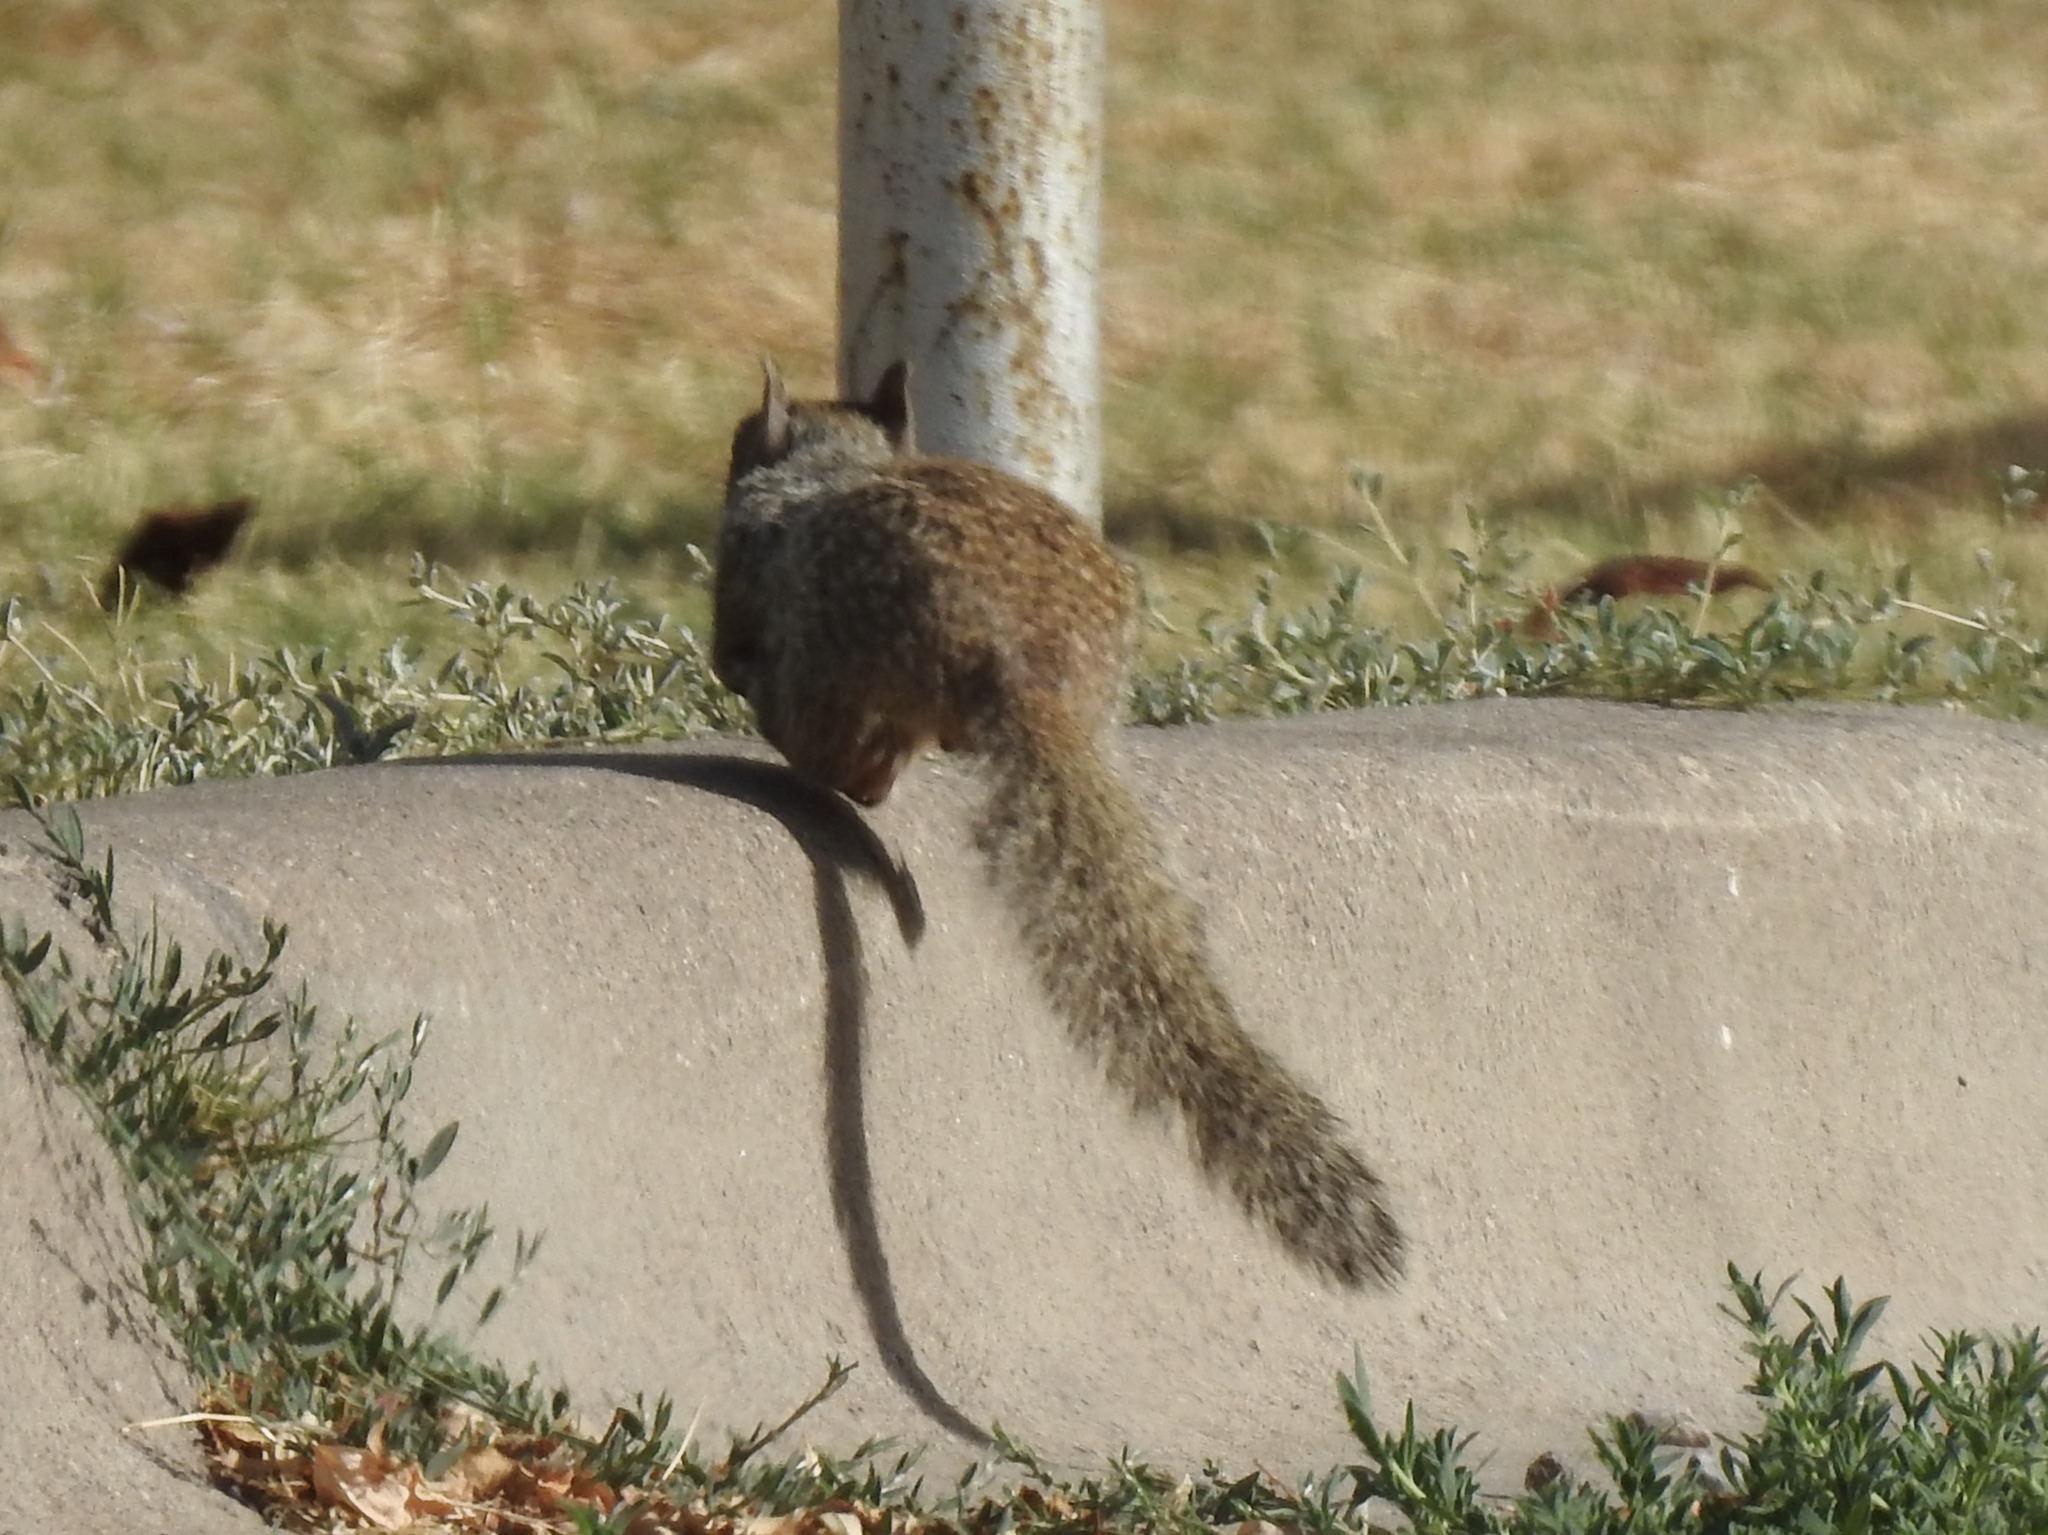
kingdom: Animalia
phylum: Chordata
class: Mammalia
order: Rodentia
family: Sciuridae
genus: Otospermophilus
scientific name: Otospermophilus variegatus
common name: Rock squirrel
